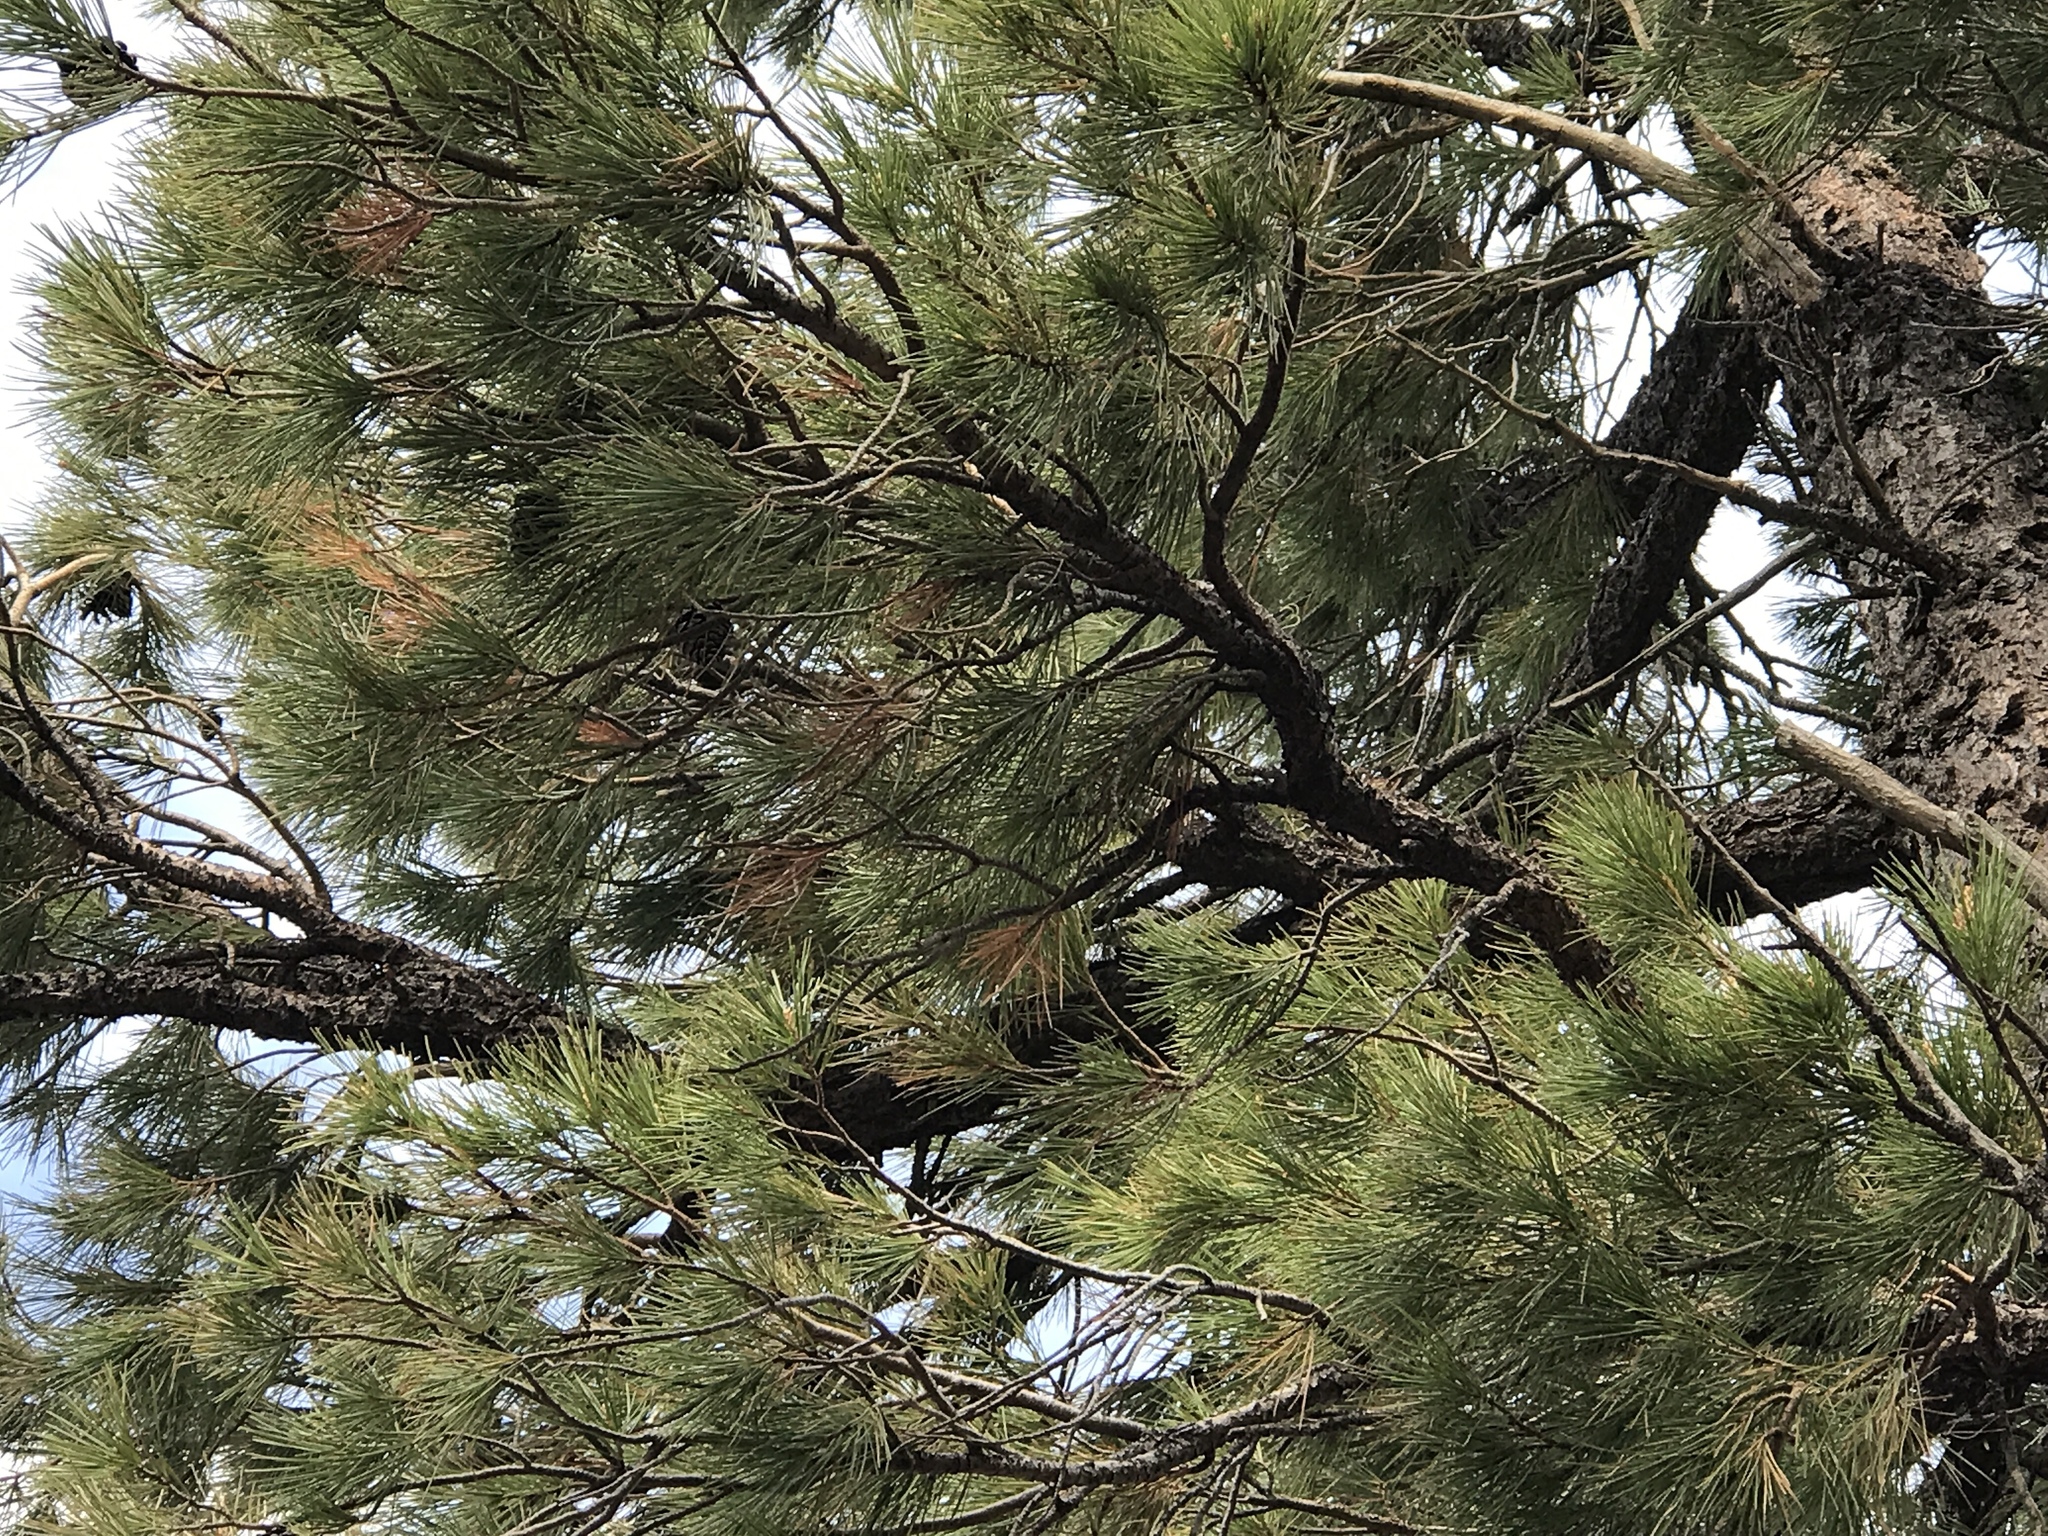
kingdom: Plantae
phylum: Tracheophyta
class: Pinopsida
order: Pinales
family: Pinaceae
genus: Pinus
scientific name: Pinus leiophylla
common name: Chihuahua pine
